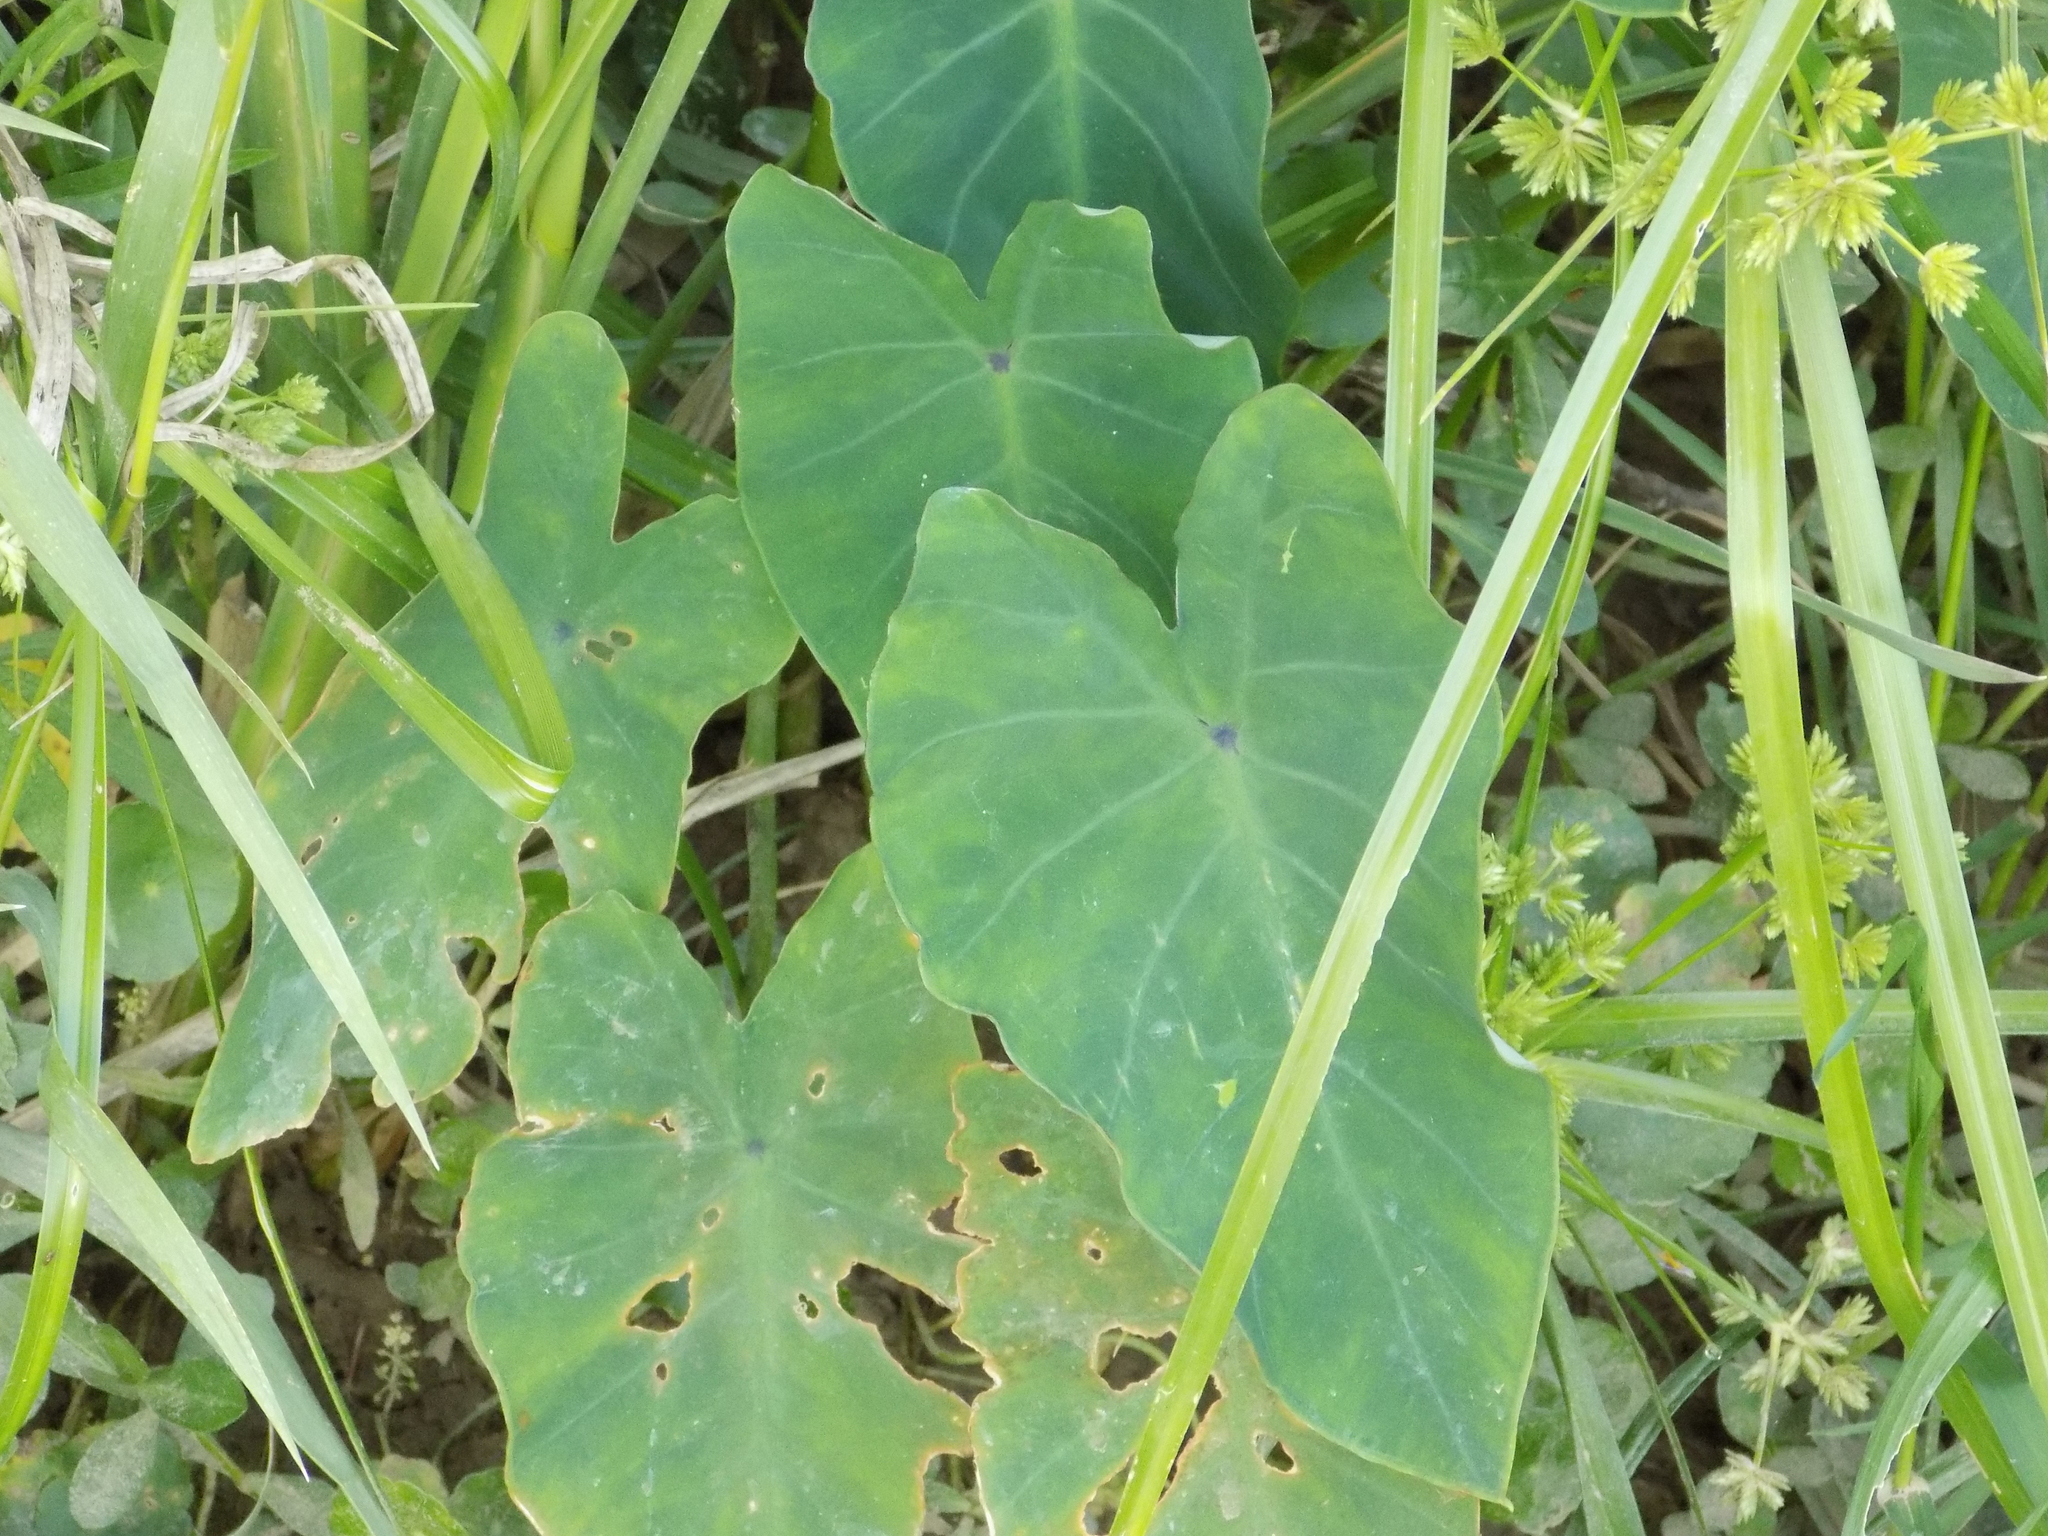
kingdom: Plantae
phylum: Tracheophyta
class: Liliopsida
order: Alismatales
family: Araceae
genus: Colocasia
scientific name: Colocasia esculenta
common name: Taro
